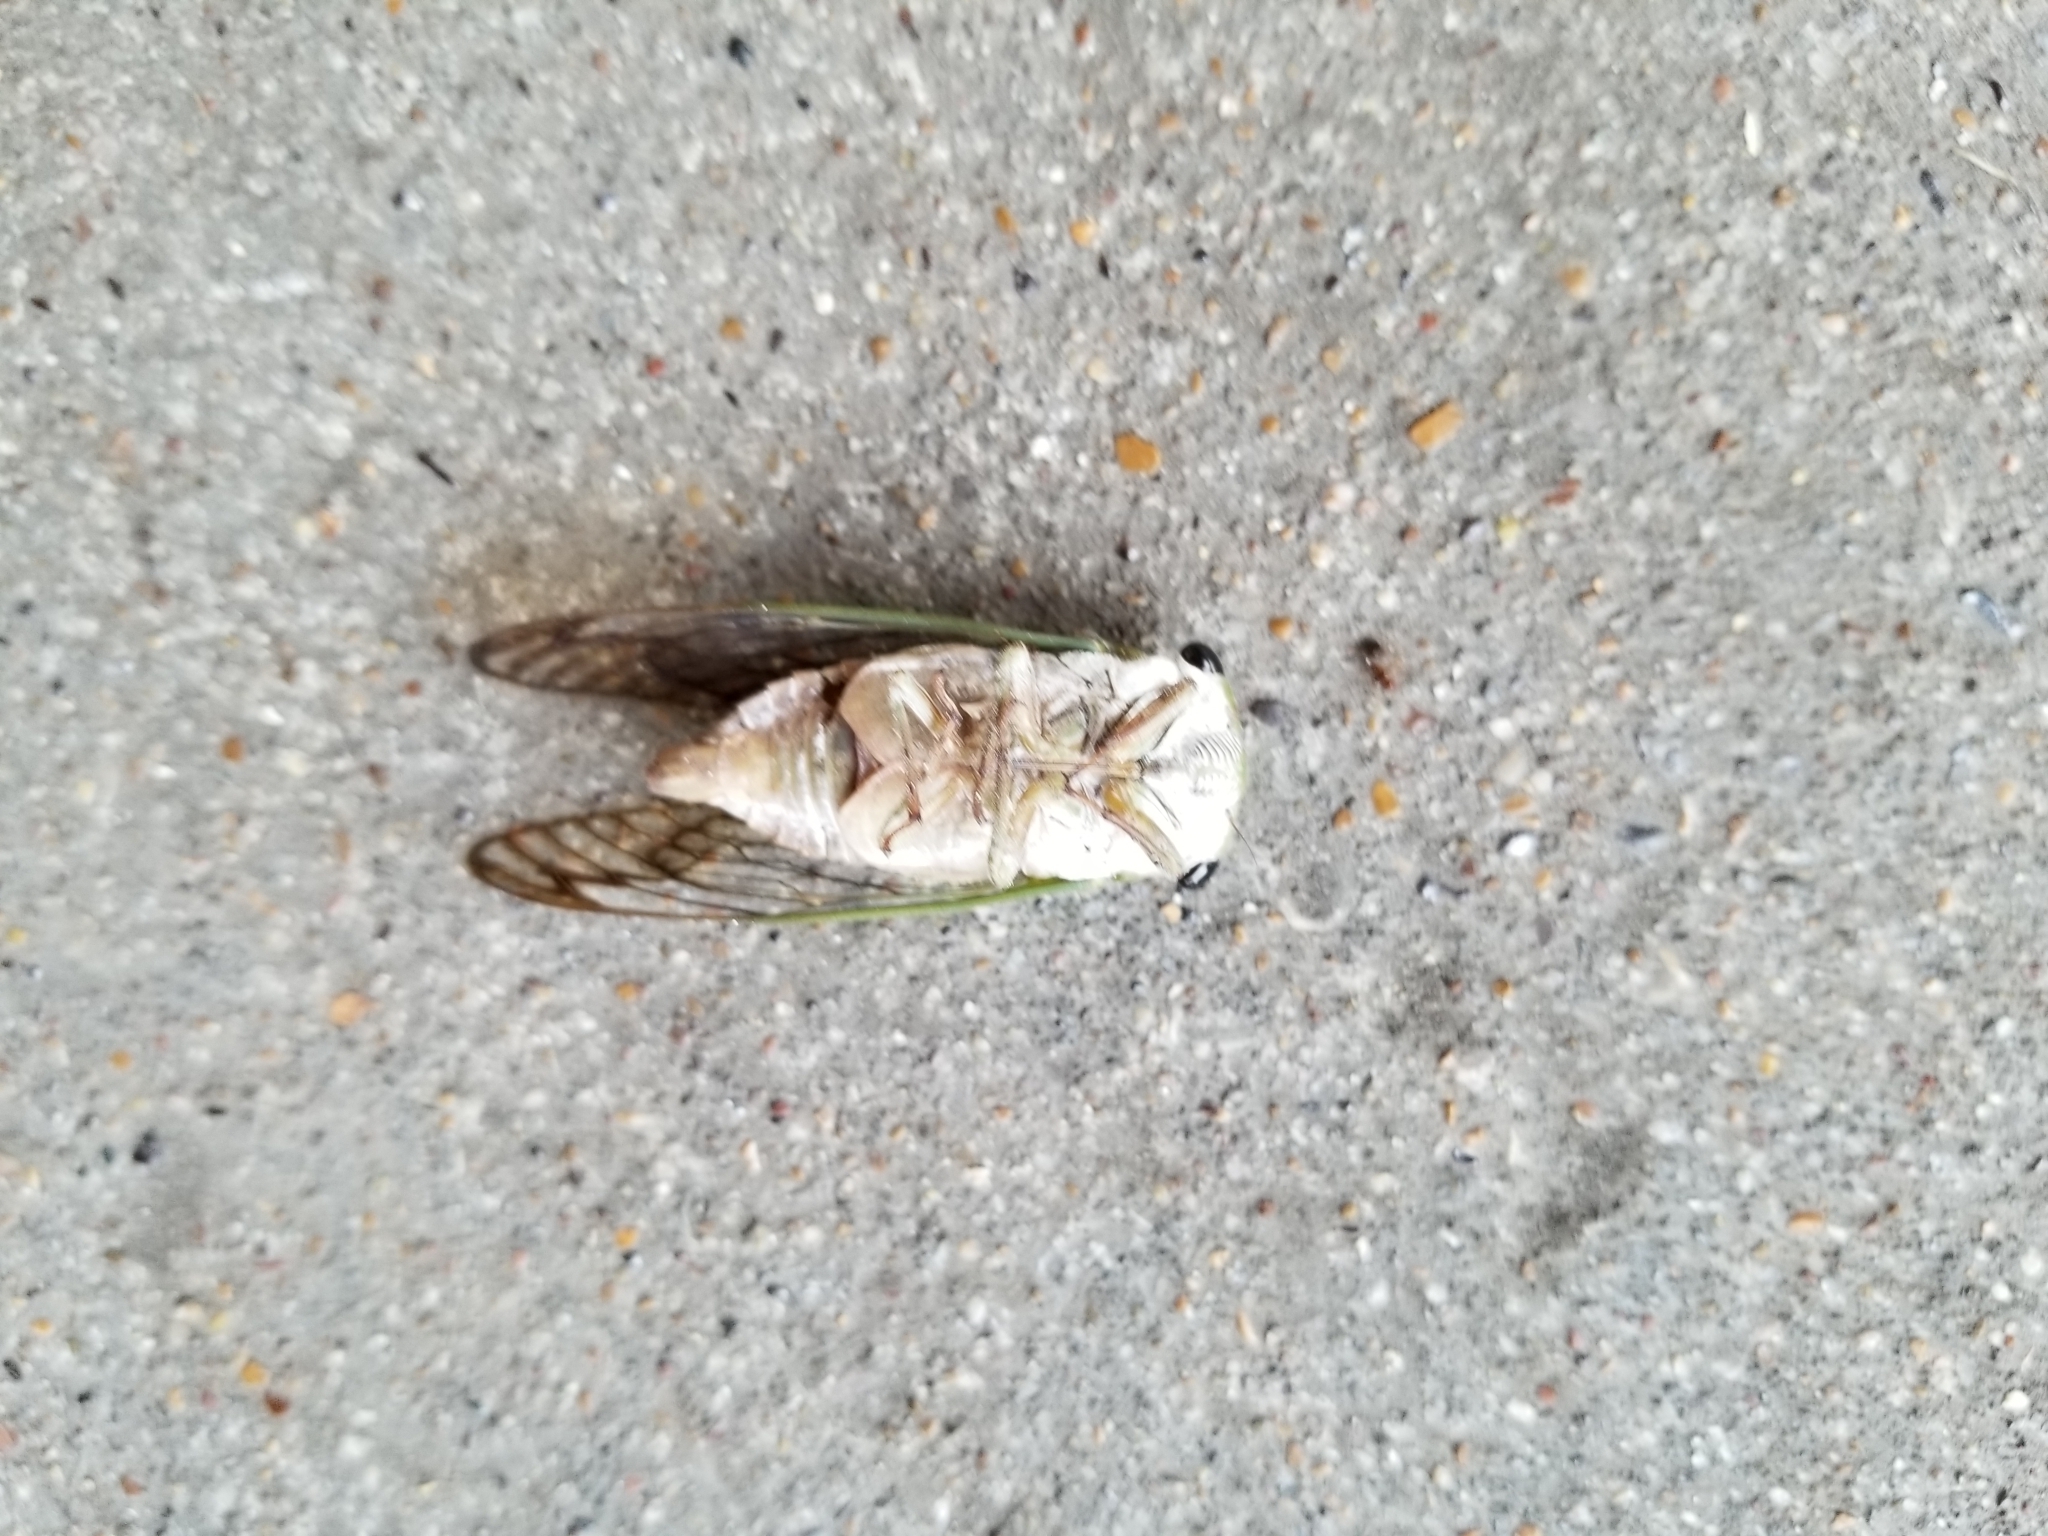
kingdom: Animalia
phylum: Arthropoda
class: Insecta
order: Hemiptera
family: Cicadidae
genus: Neotibicen
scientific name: Neotibicen superbus
